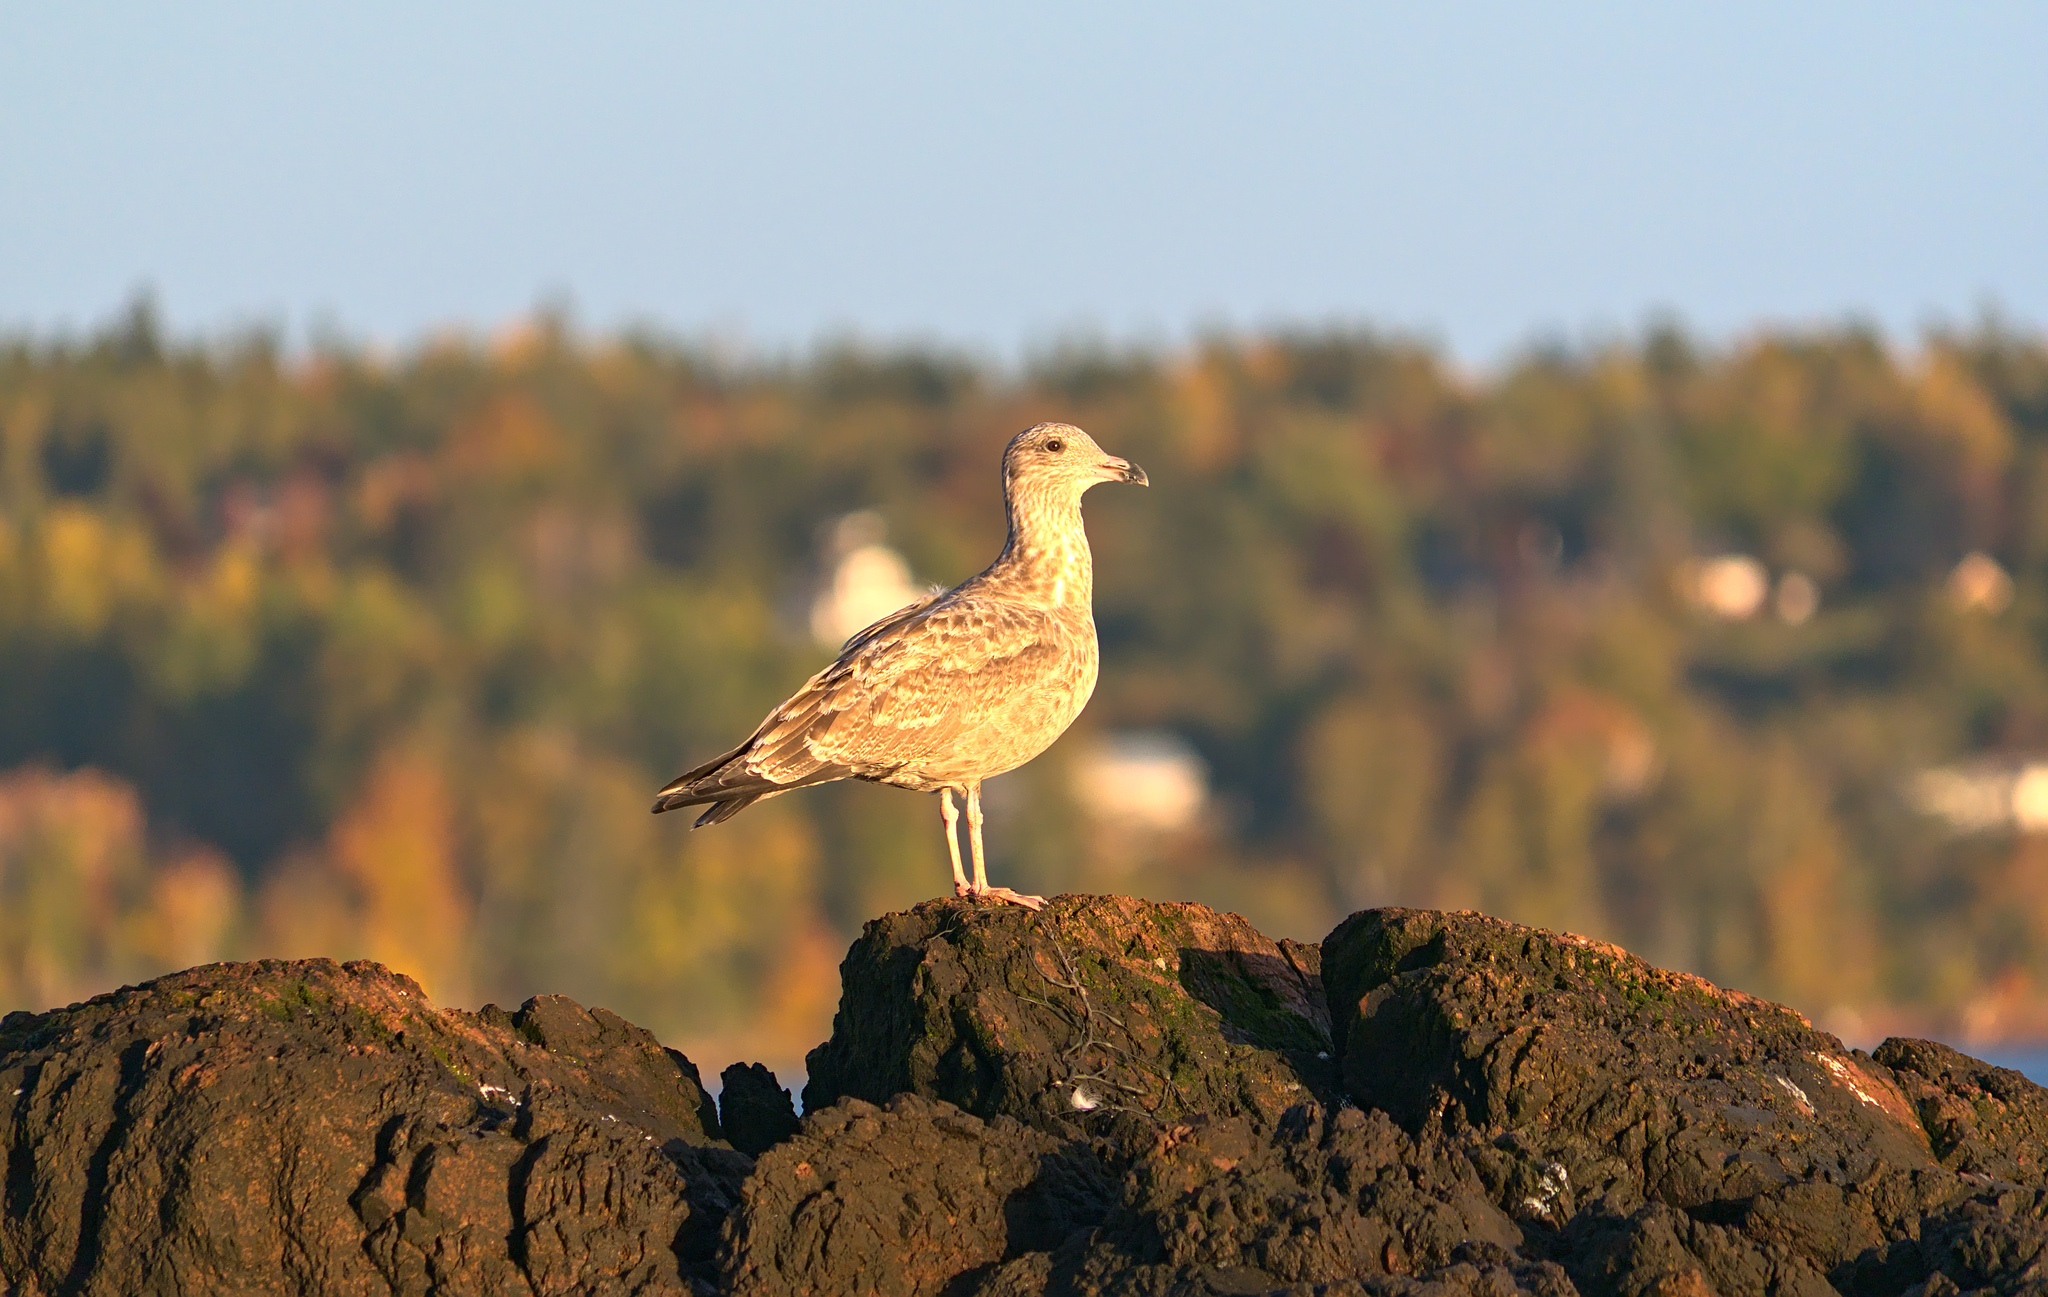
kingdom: Animalia
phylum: Chordata
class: Aves
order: Charadriiformes
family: Laridae
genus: Larus
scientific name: Larus argentatus
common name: Herring gull
